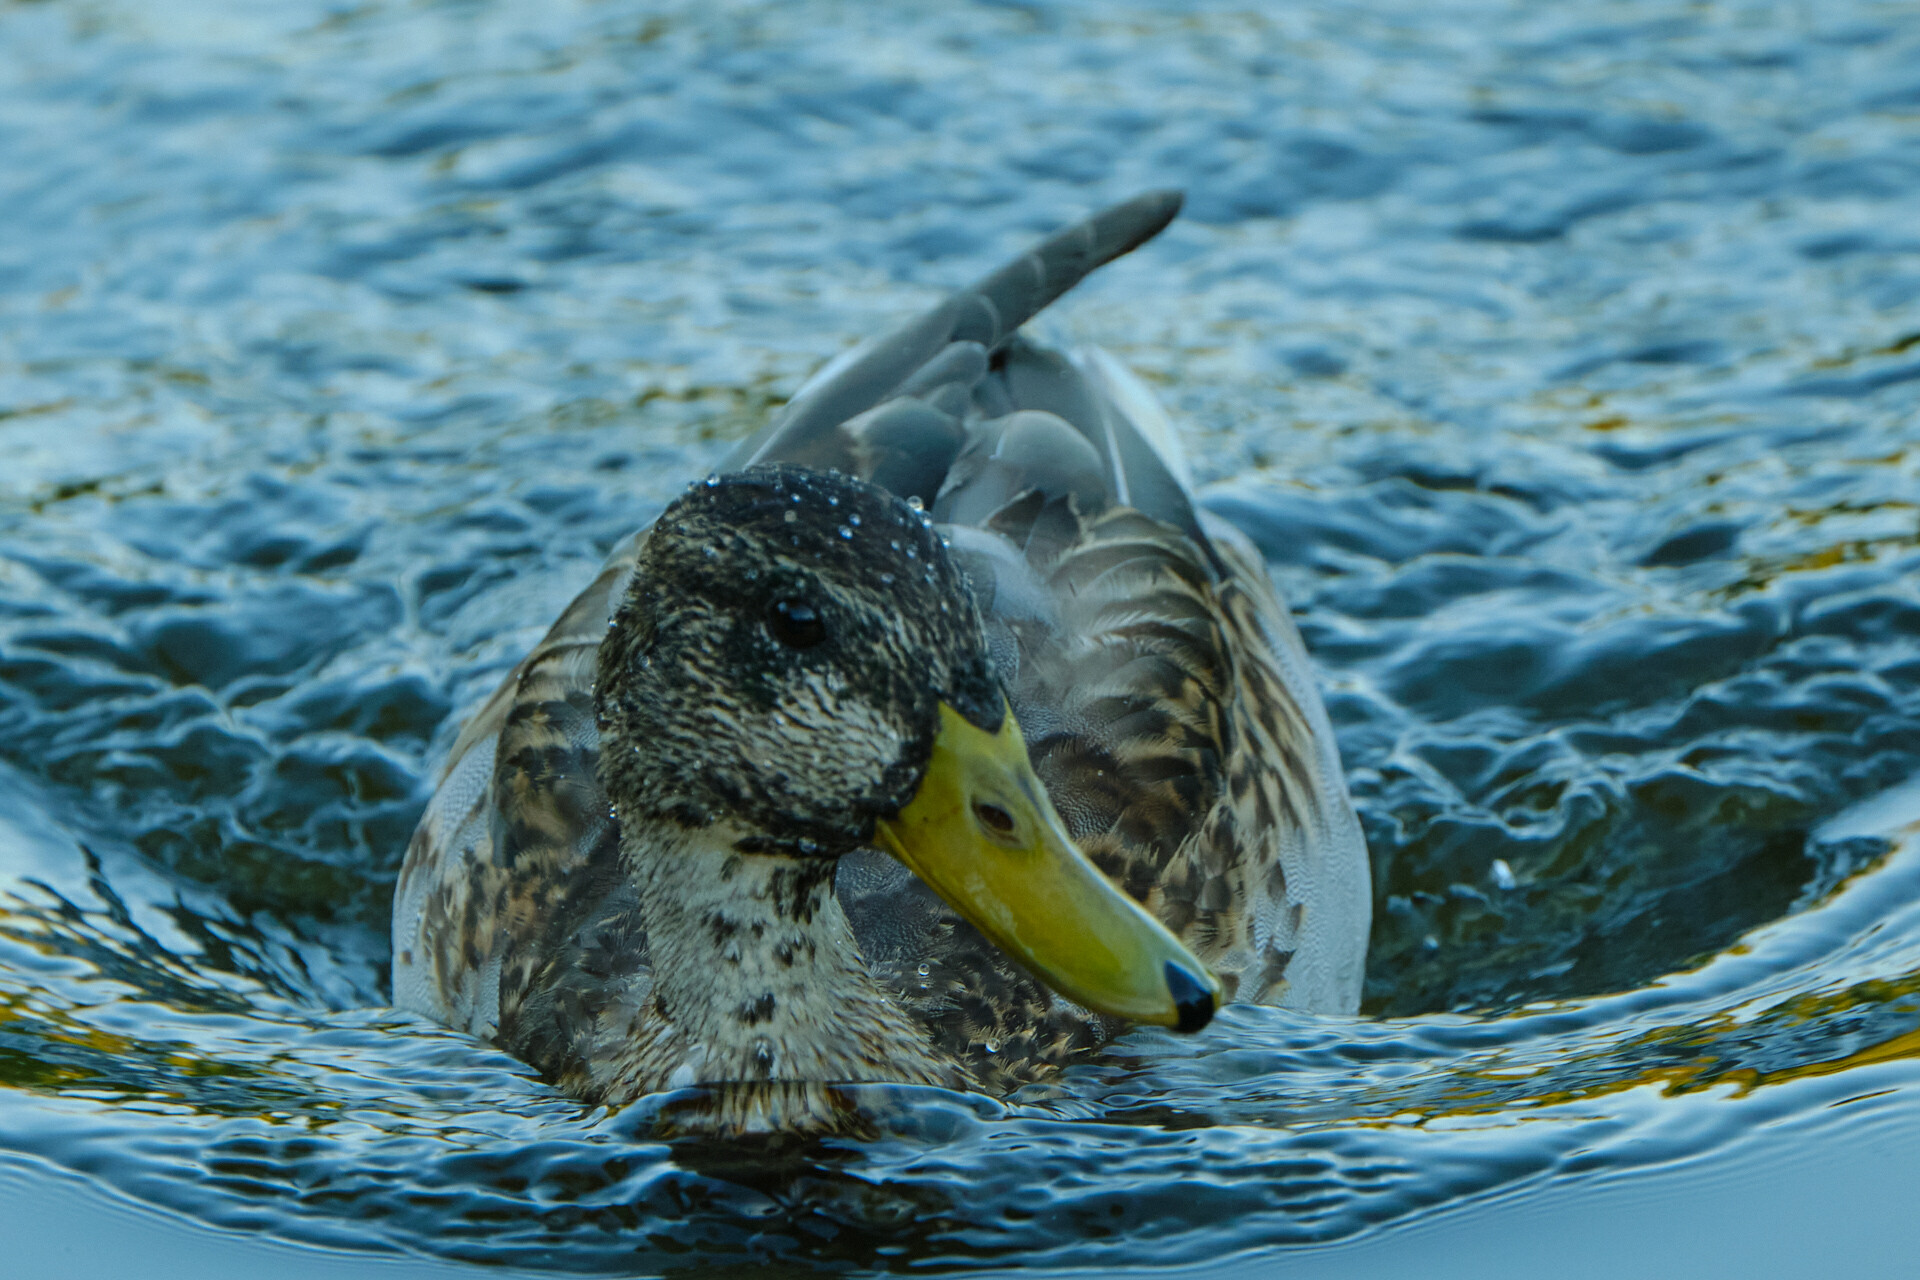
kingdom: Animalia
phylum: Chordata
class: Aves
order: Anseriformes
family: Anatidae
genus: Anas
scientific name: Anas platyrhynchos
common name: Mallard
